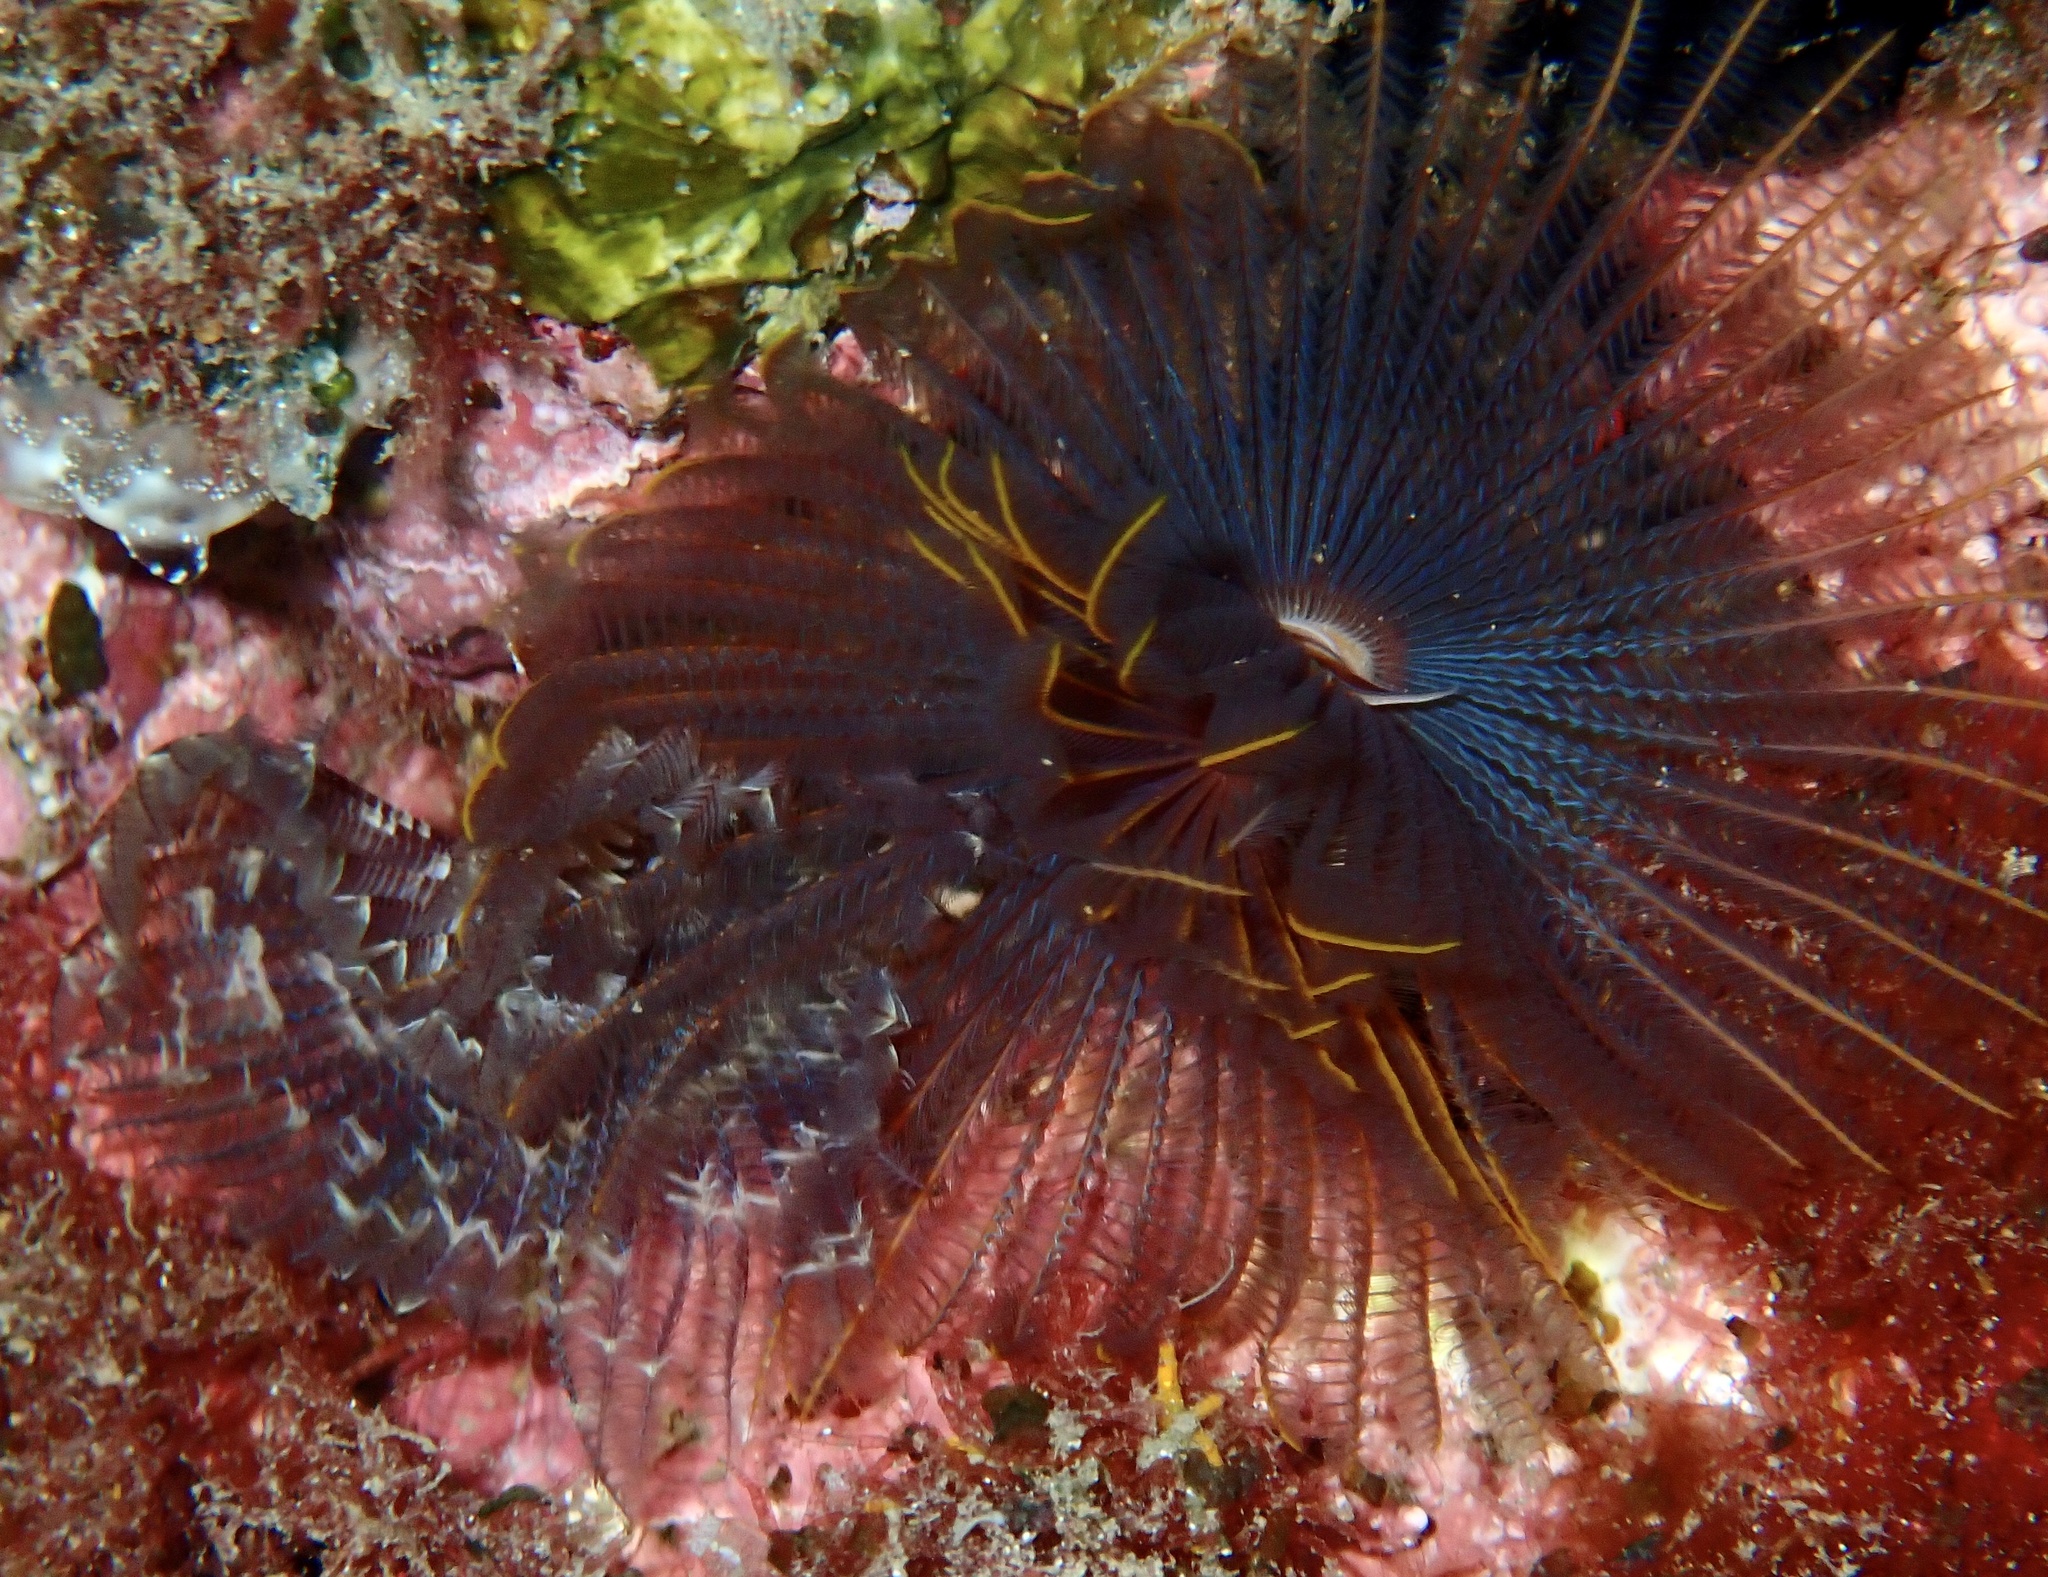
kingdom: Animalia
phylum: Annelida
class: Polychaeta
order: Sabellida
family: Sabellidae
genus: Branchiomma
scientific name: Branchiomma luctuosum
